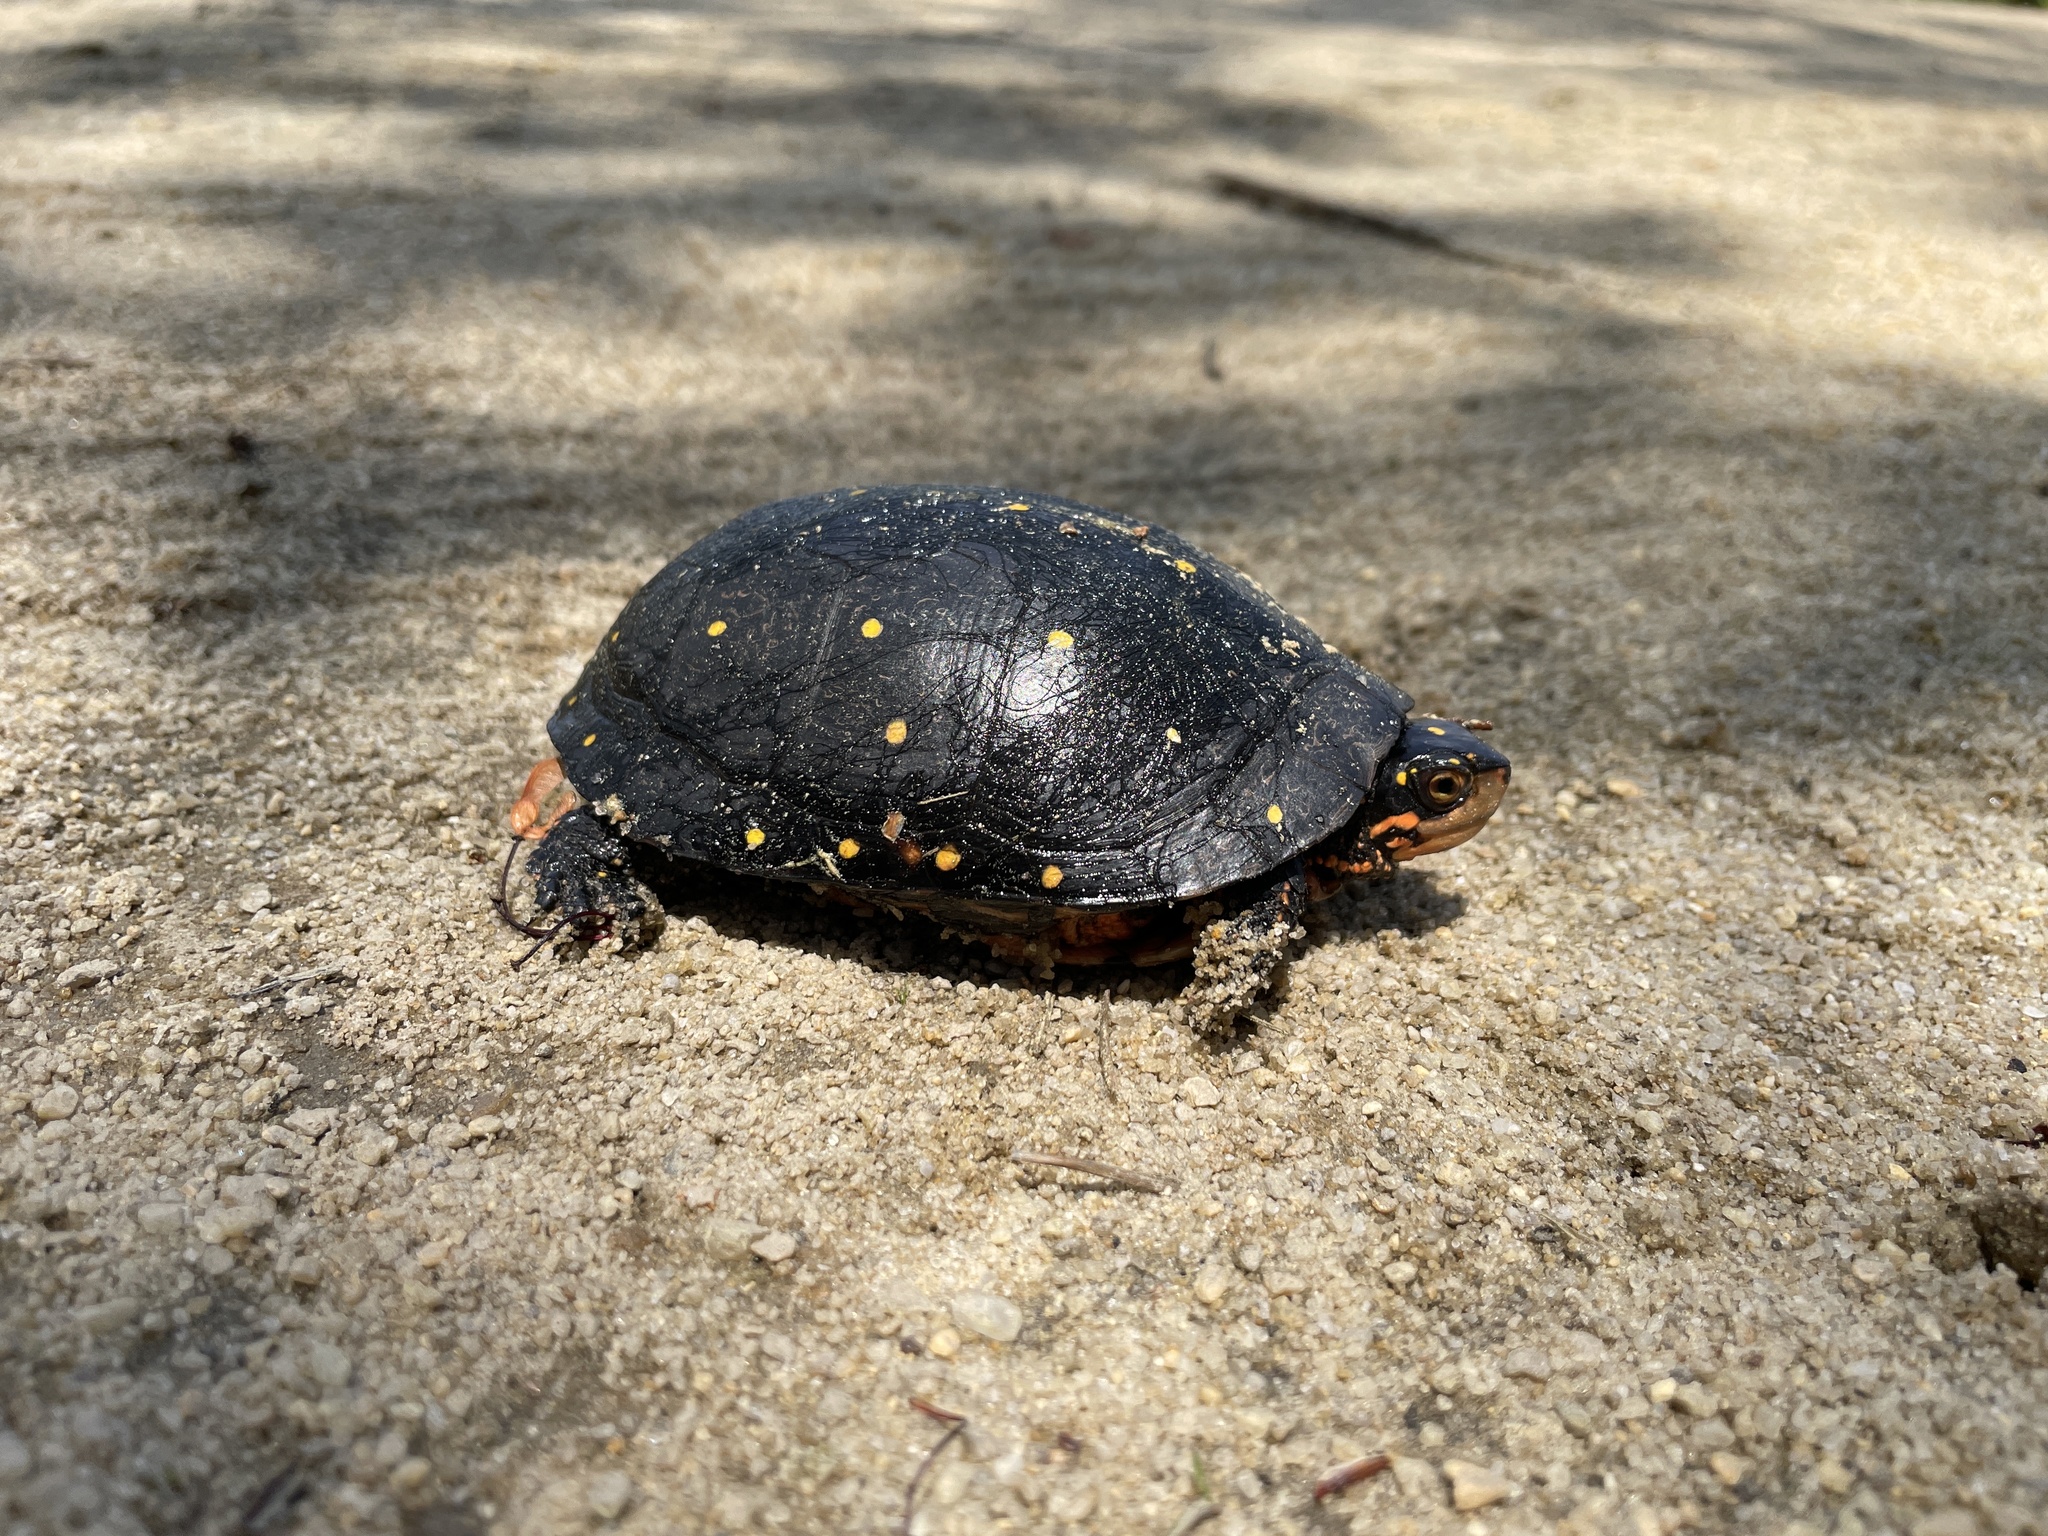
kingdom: Animalia
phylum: Chordata
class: Testudines
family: Emydidae
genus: Clemmys
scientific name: Clemmys guttata
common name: Spotted turtle
